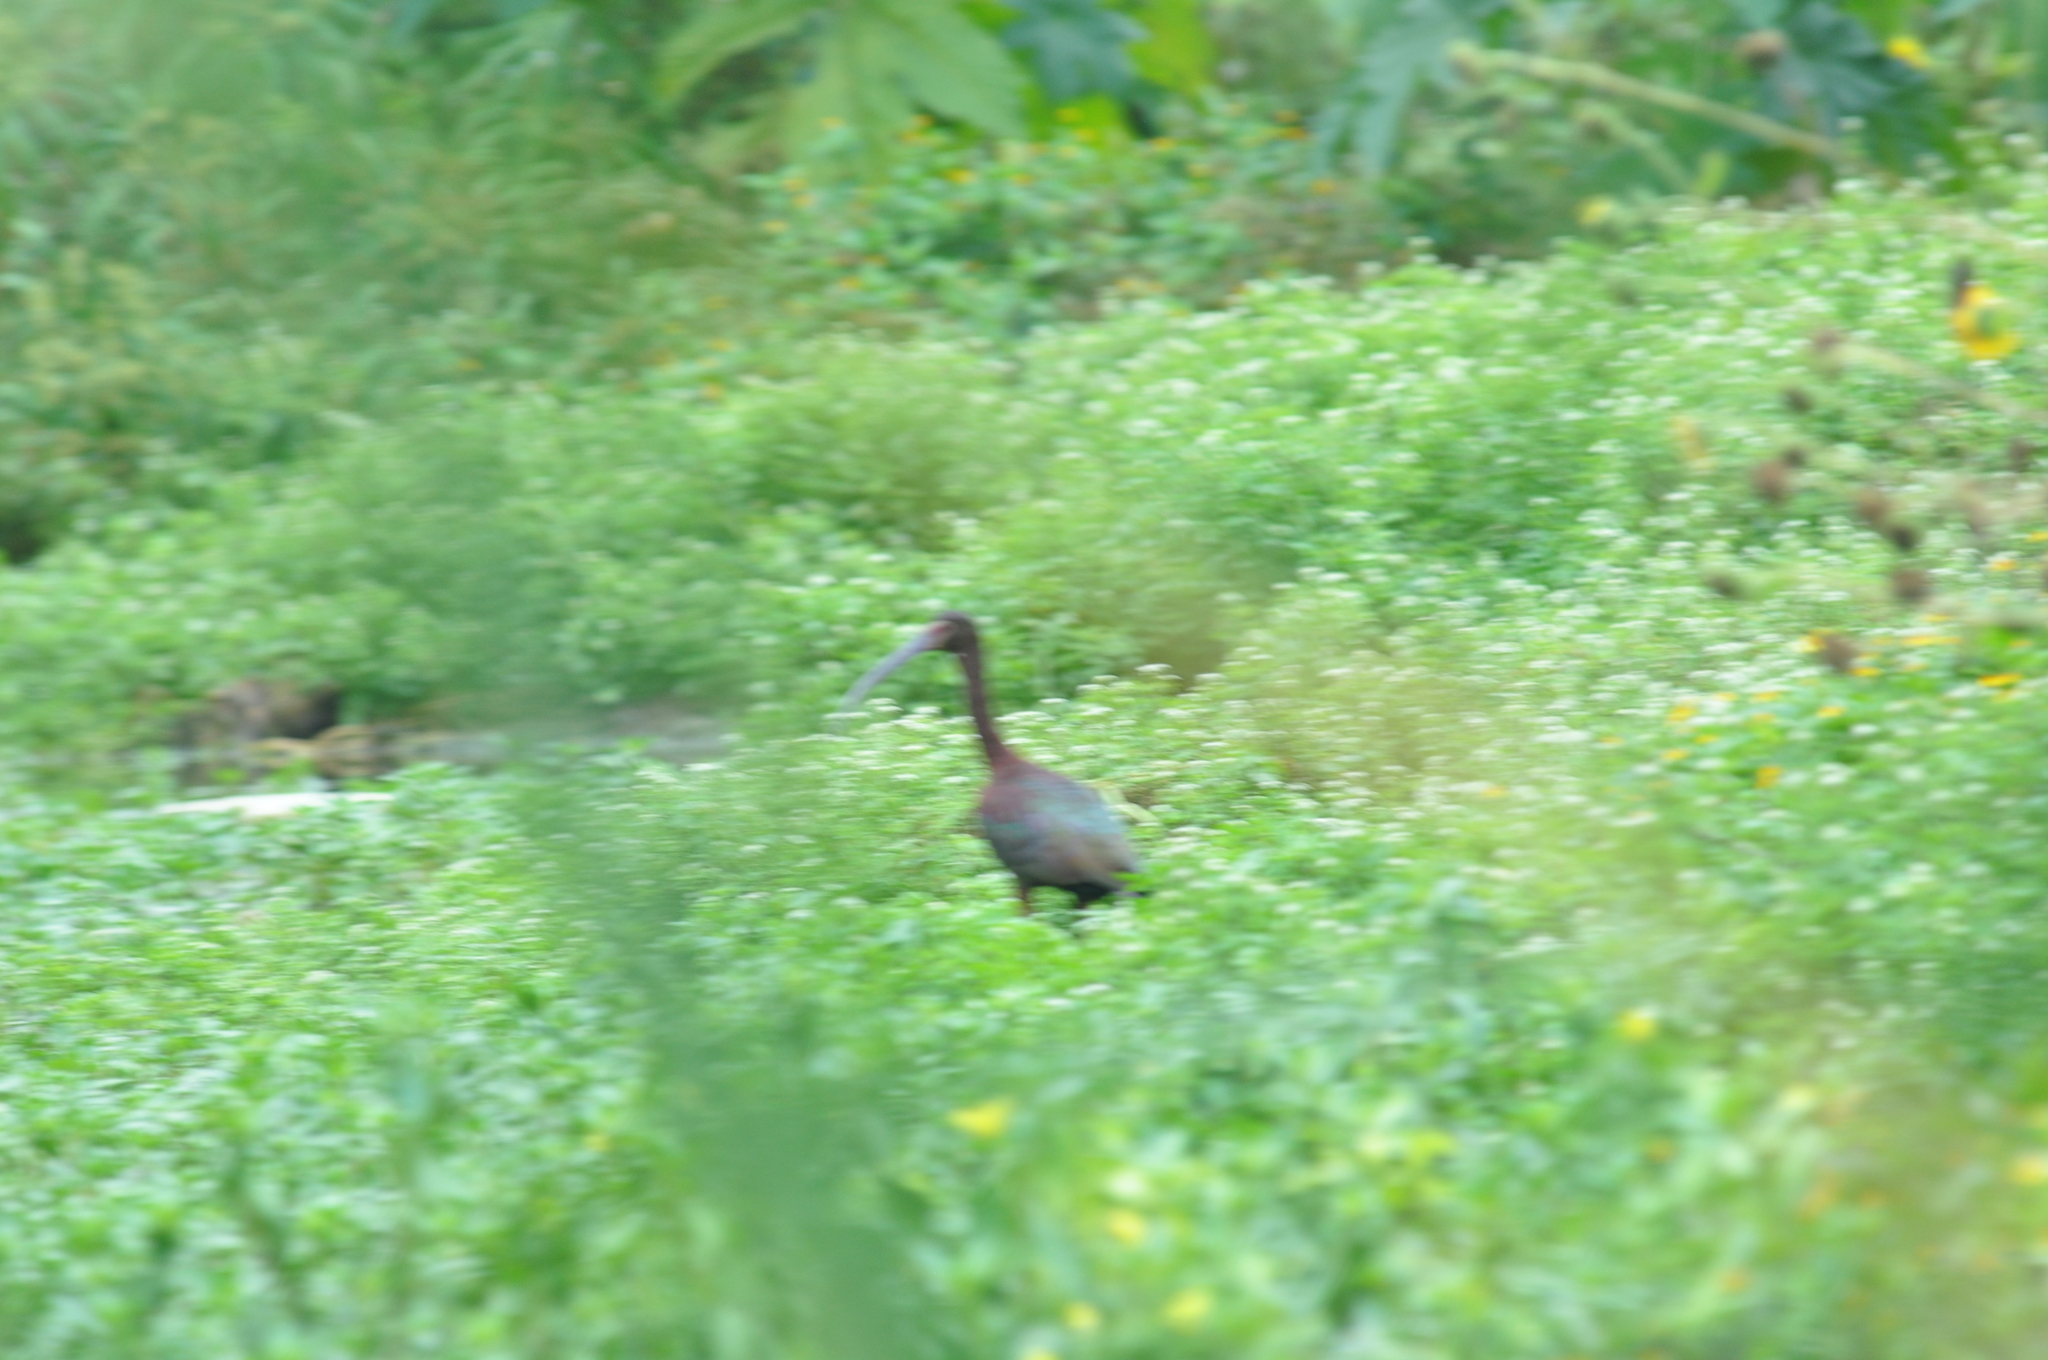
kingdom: Animalia
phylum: Chordata
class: Aves
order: Pelecaniformes
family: Threskiornithidae
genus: Plegadis
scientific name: Plegadis chihi
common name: White-faced ibis
